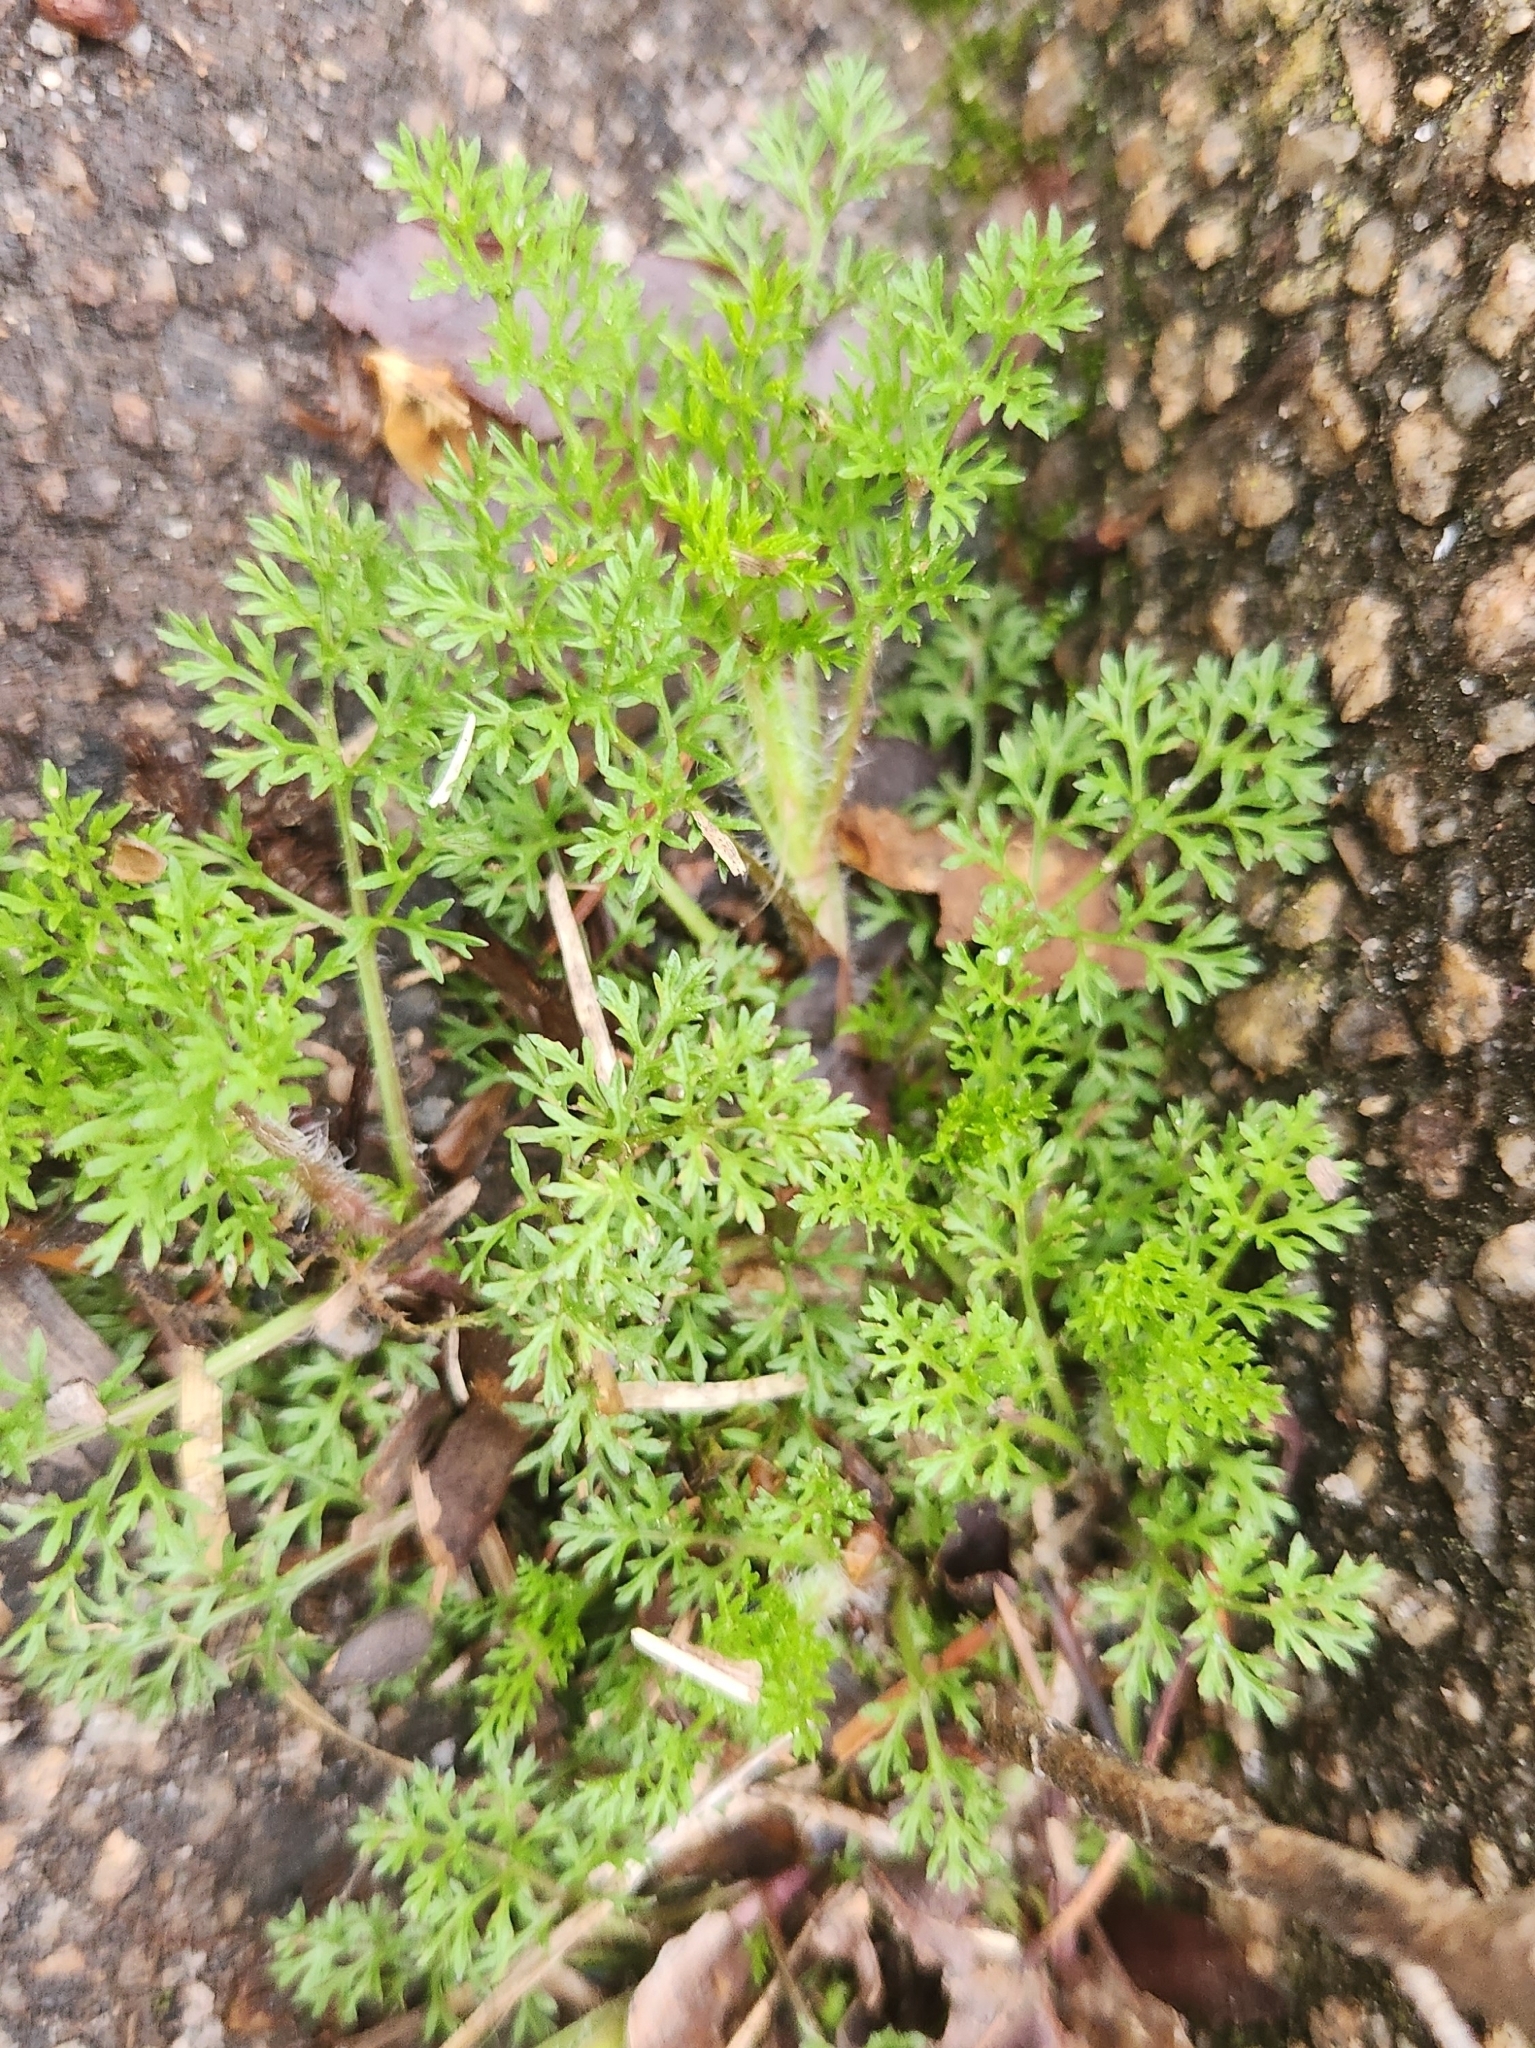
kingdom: Plantae
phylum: Tracheophyta
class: Magnoliopsida
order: Asterales
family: Asteraceae
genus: Eupatorium
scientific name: Eupatorium capillifolium
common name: Dog-fennel
